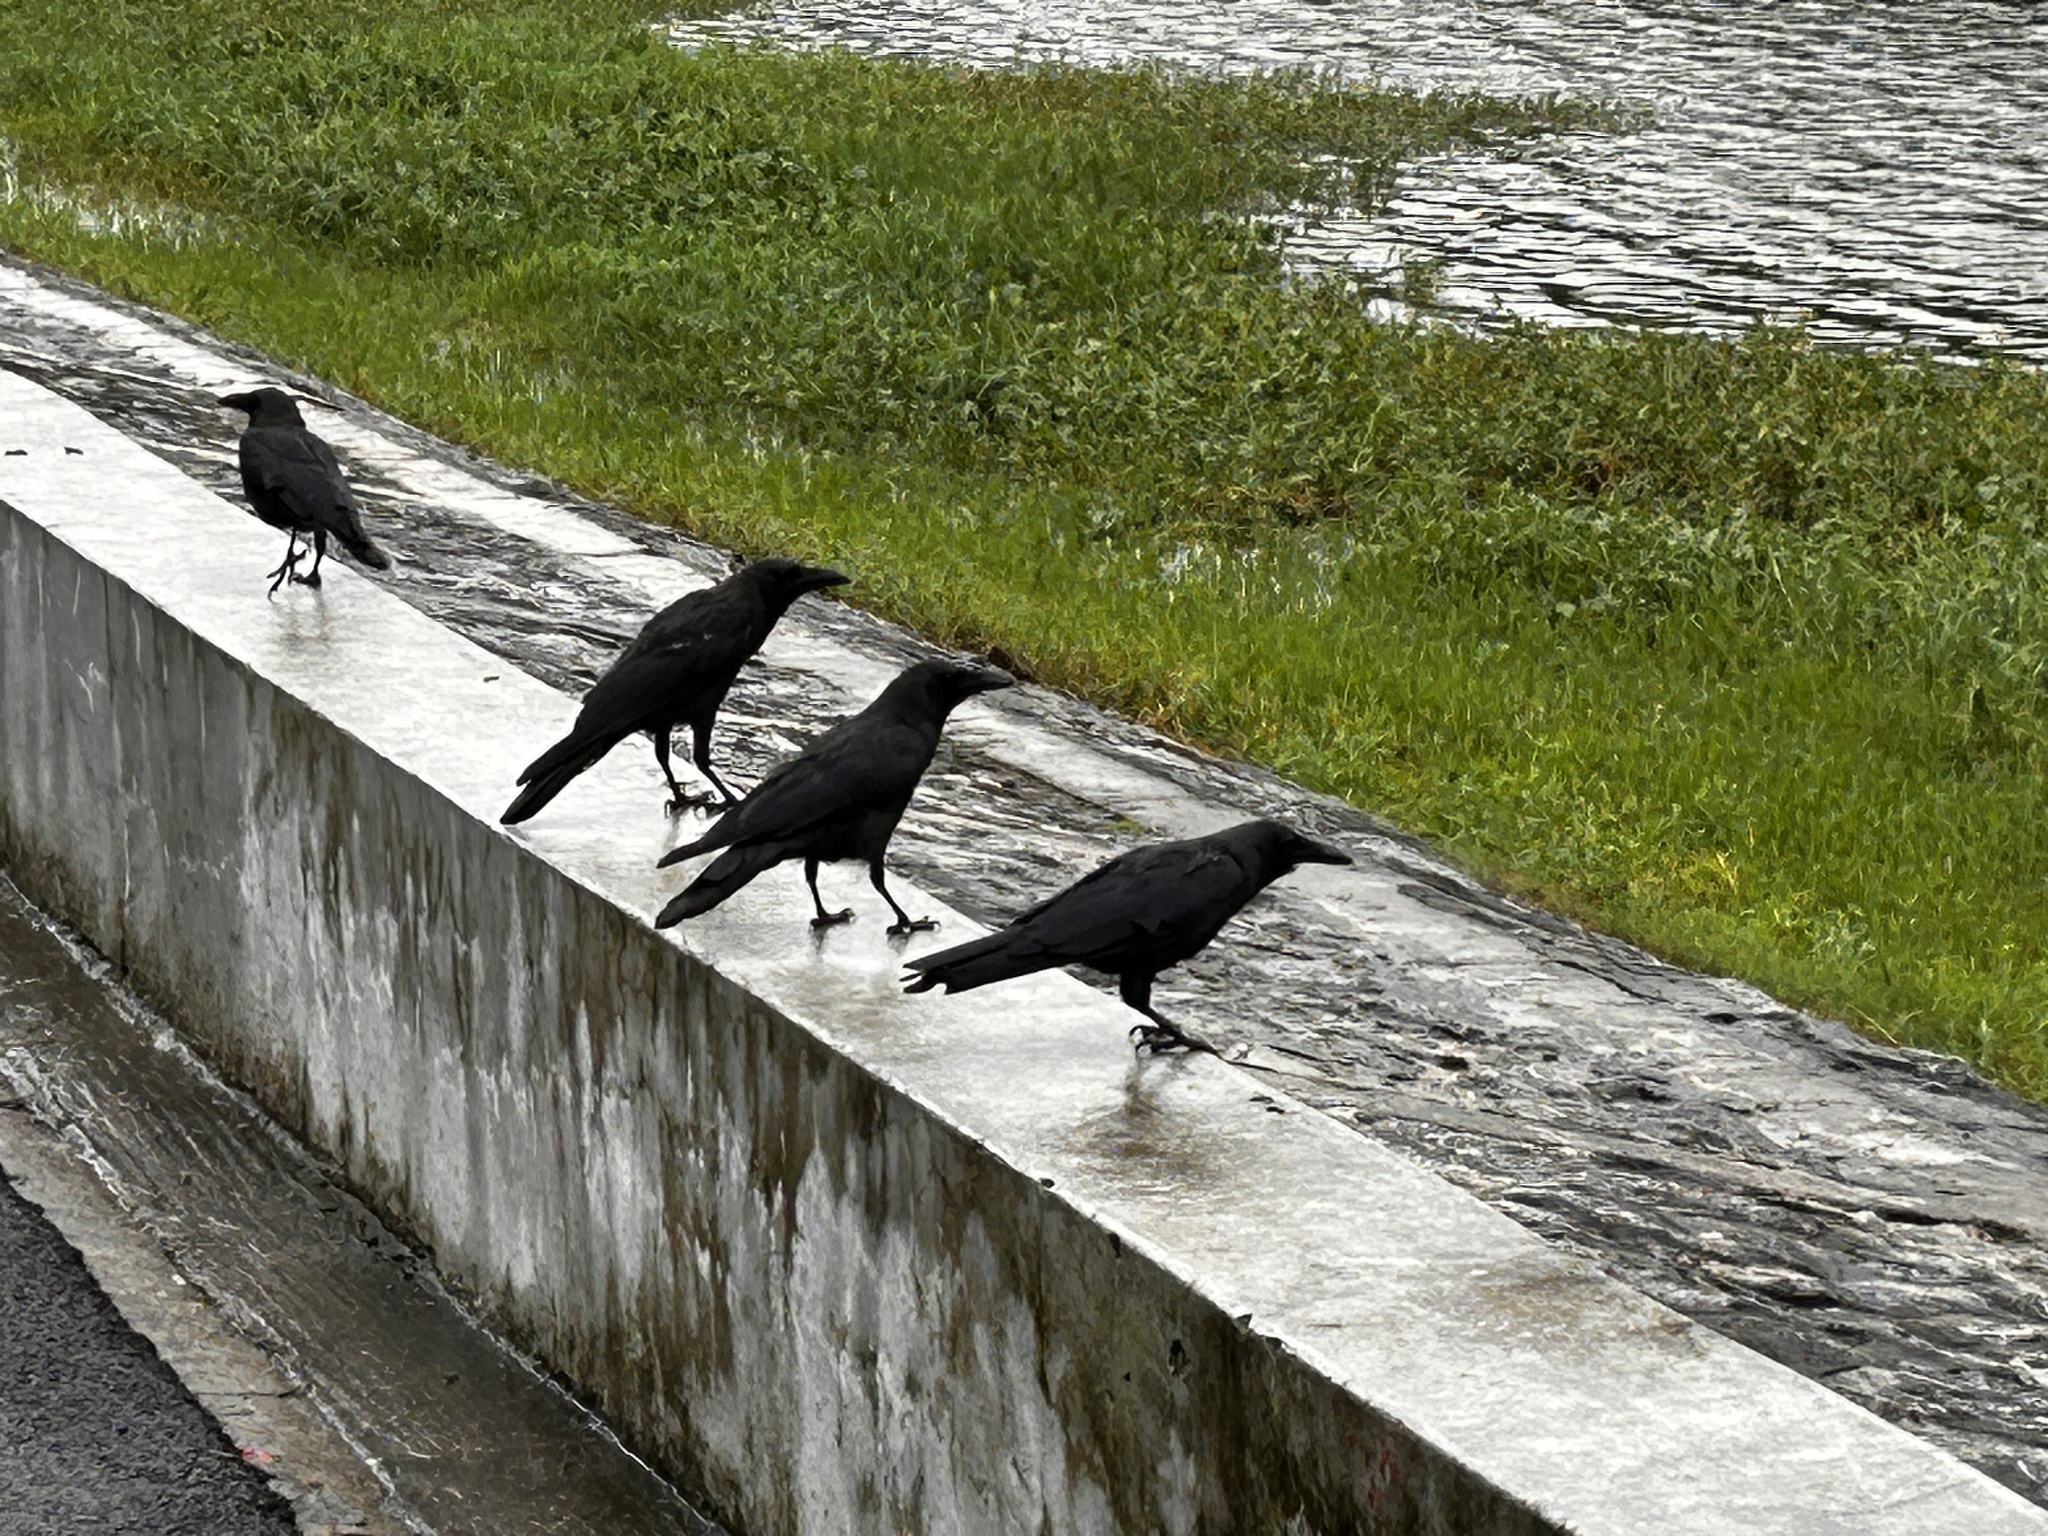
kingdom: Animalia
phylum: Chordata
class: Aves
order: Passeriformes
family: Corvidae
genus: Corvus
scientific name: Corvus splendens
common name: House crow
